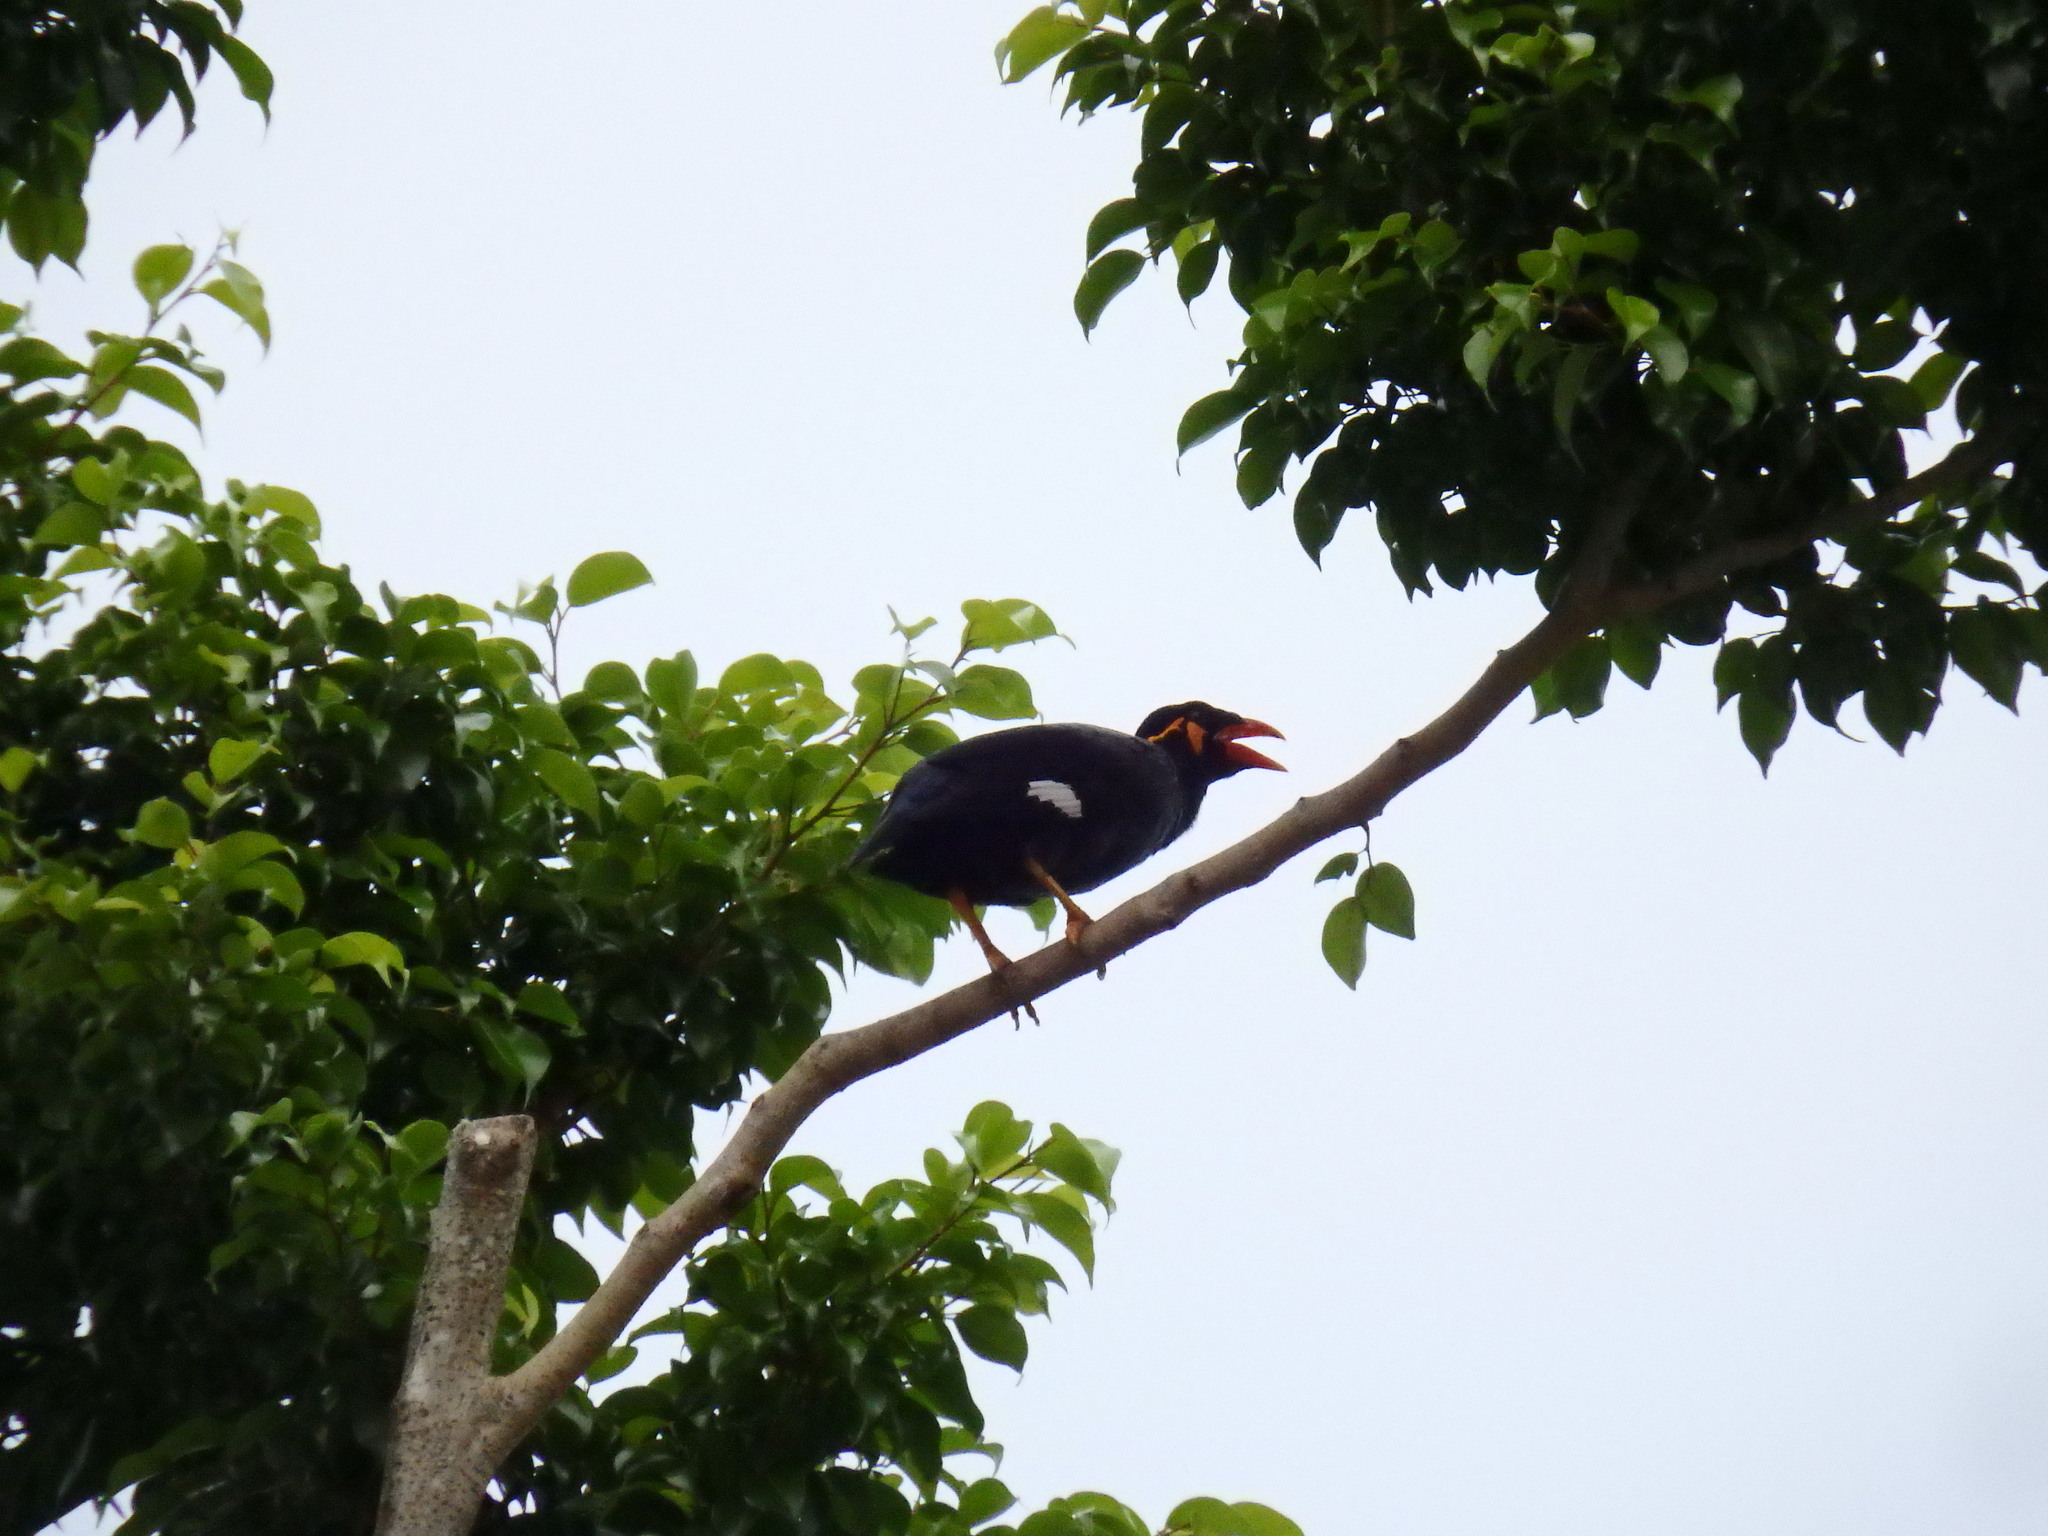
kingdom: Animalia
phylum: Chordata
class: Aves
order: Passeriformes
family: Sturnidae
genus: Gracula
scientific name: Gracula religiosa
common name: Common hill myna
